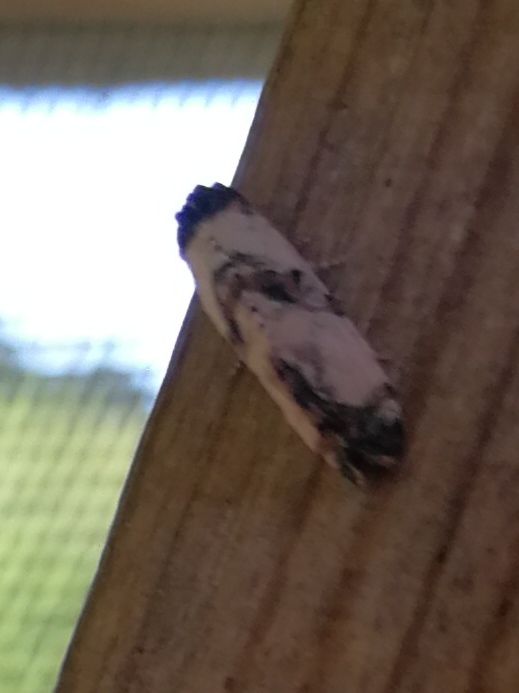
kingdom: Animalia
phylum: Arthropoda
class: Insecta
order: Lepidoptera
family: Tortricidae
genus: Cochylis
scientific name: Cochylis atricapitana
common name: Tortricid moth
